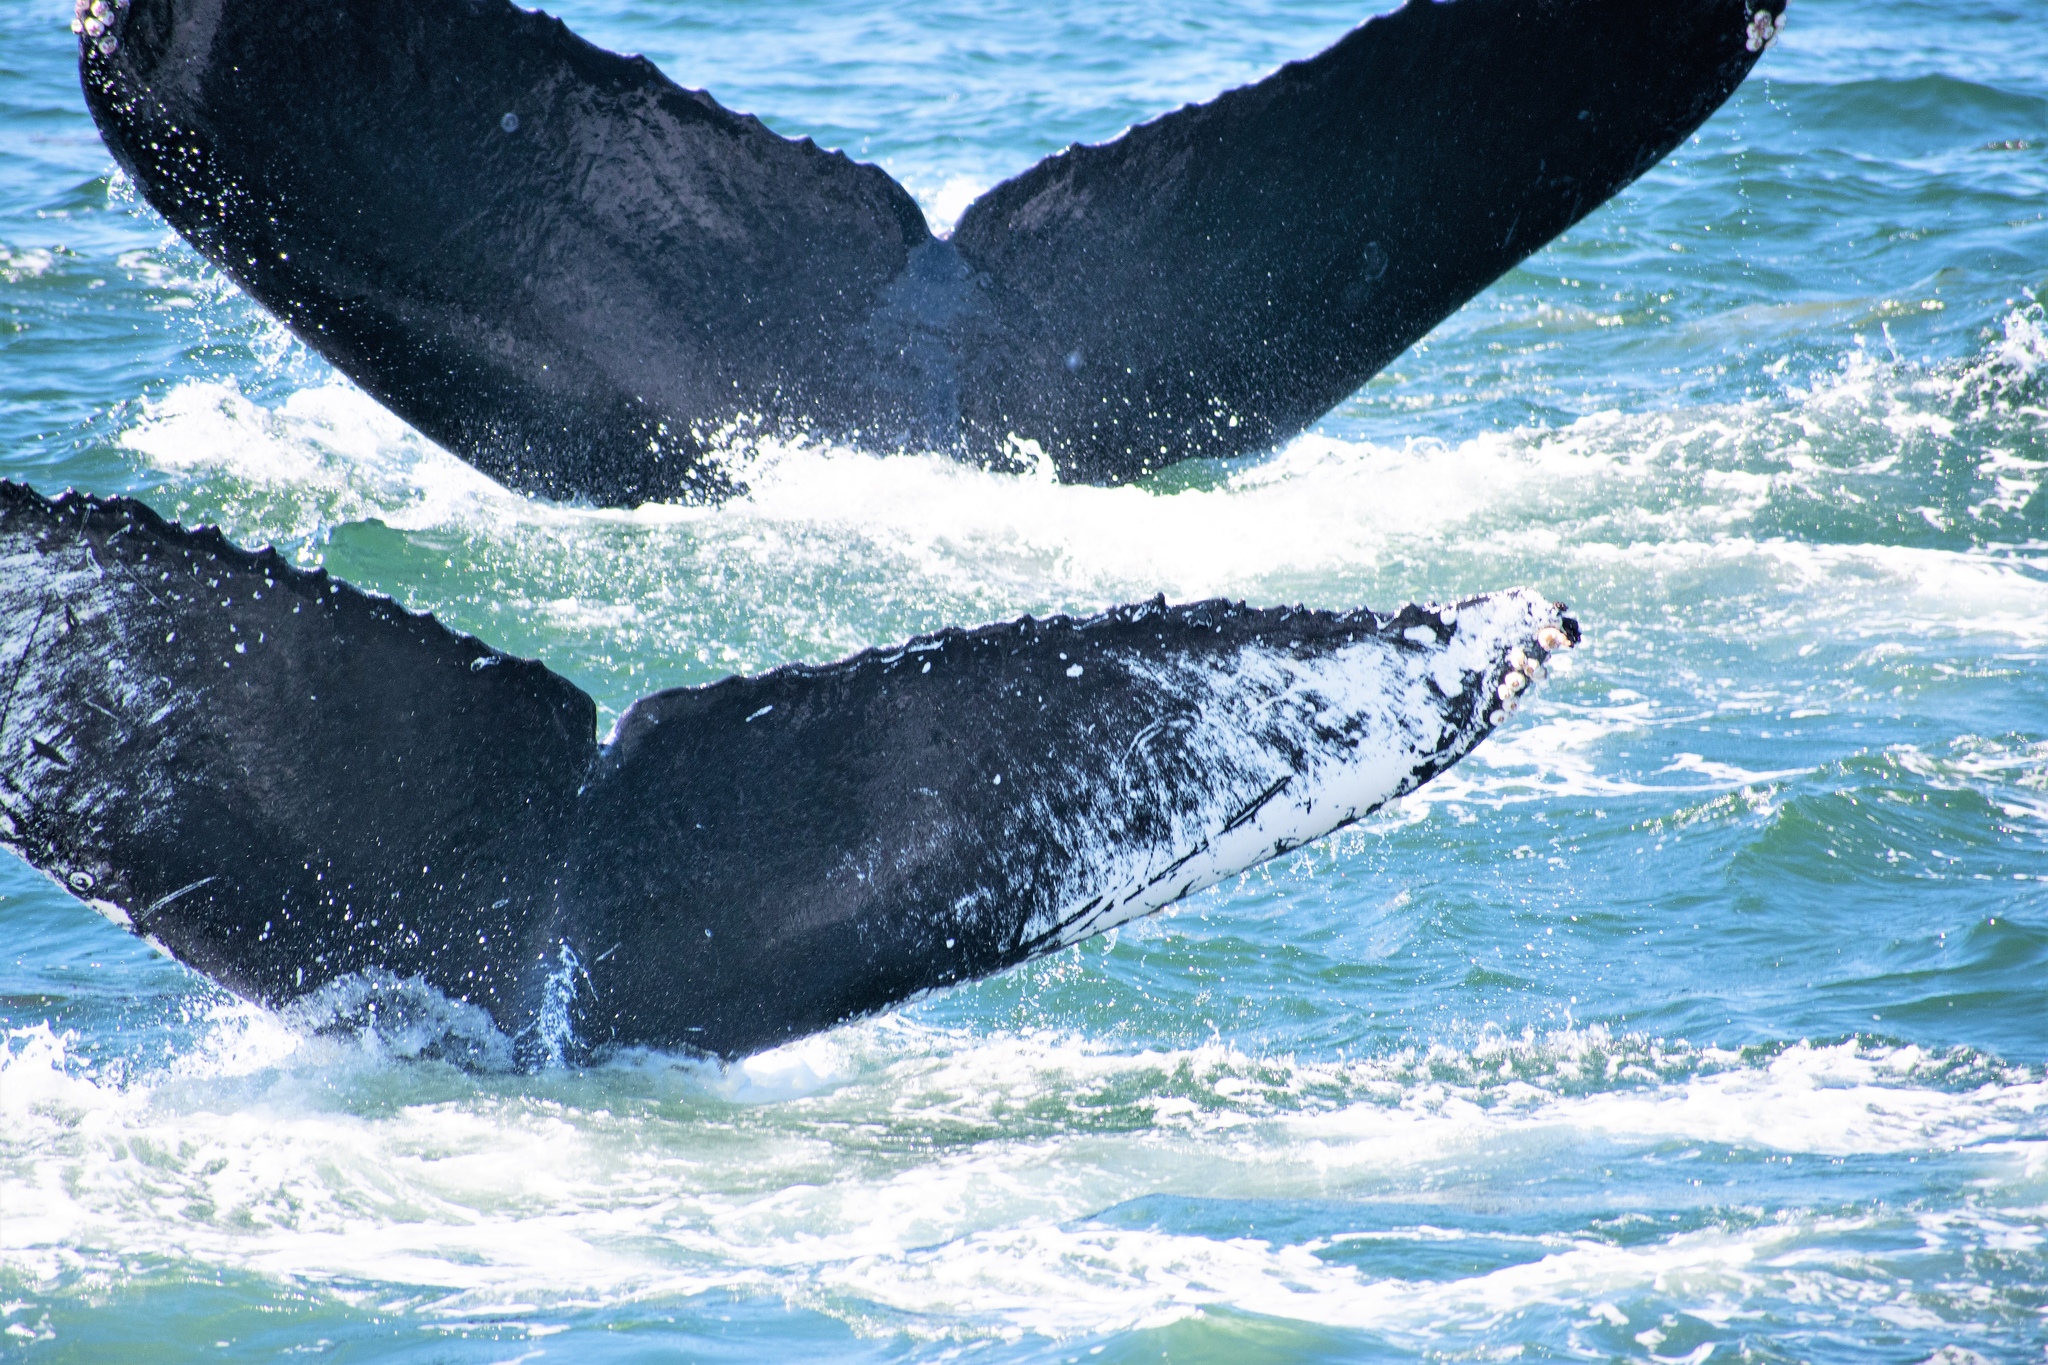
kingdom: Animalia
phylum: Chordata
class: Mammalia
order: Cetacea
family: Balaenopteridae
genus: Megaptera
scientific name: Megaptera novaeangliae
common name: Humpback whale
